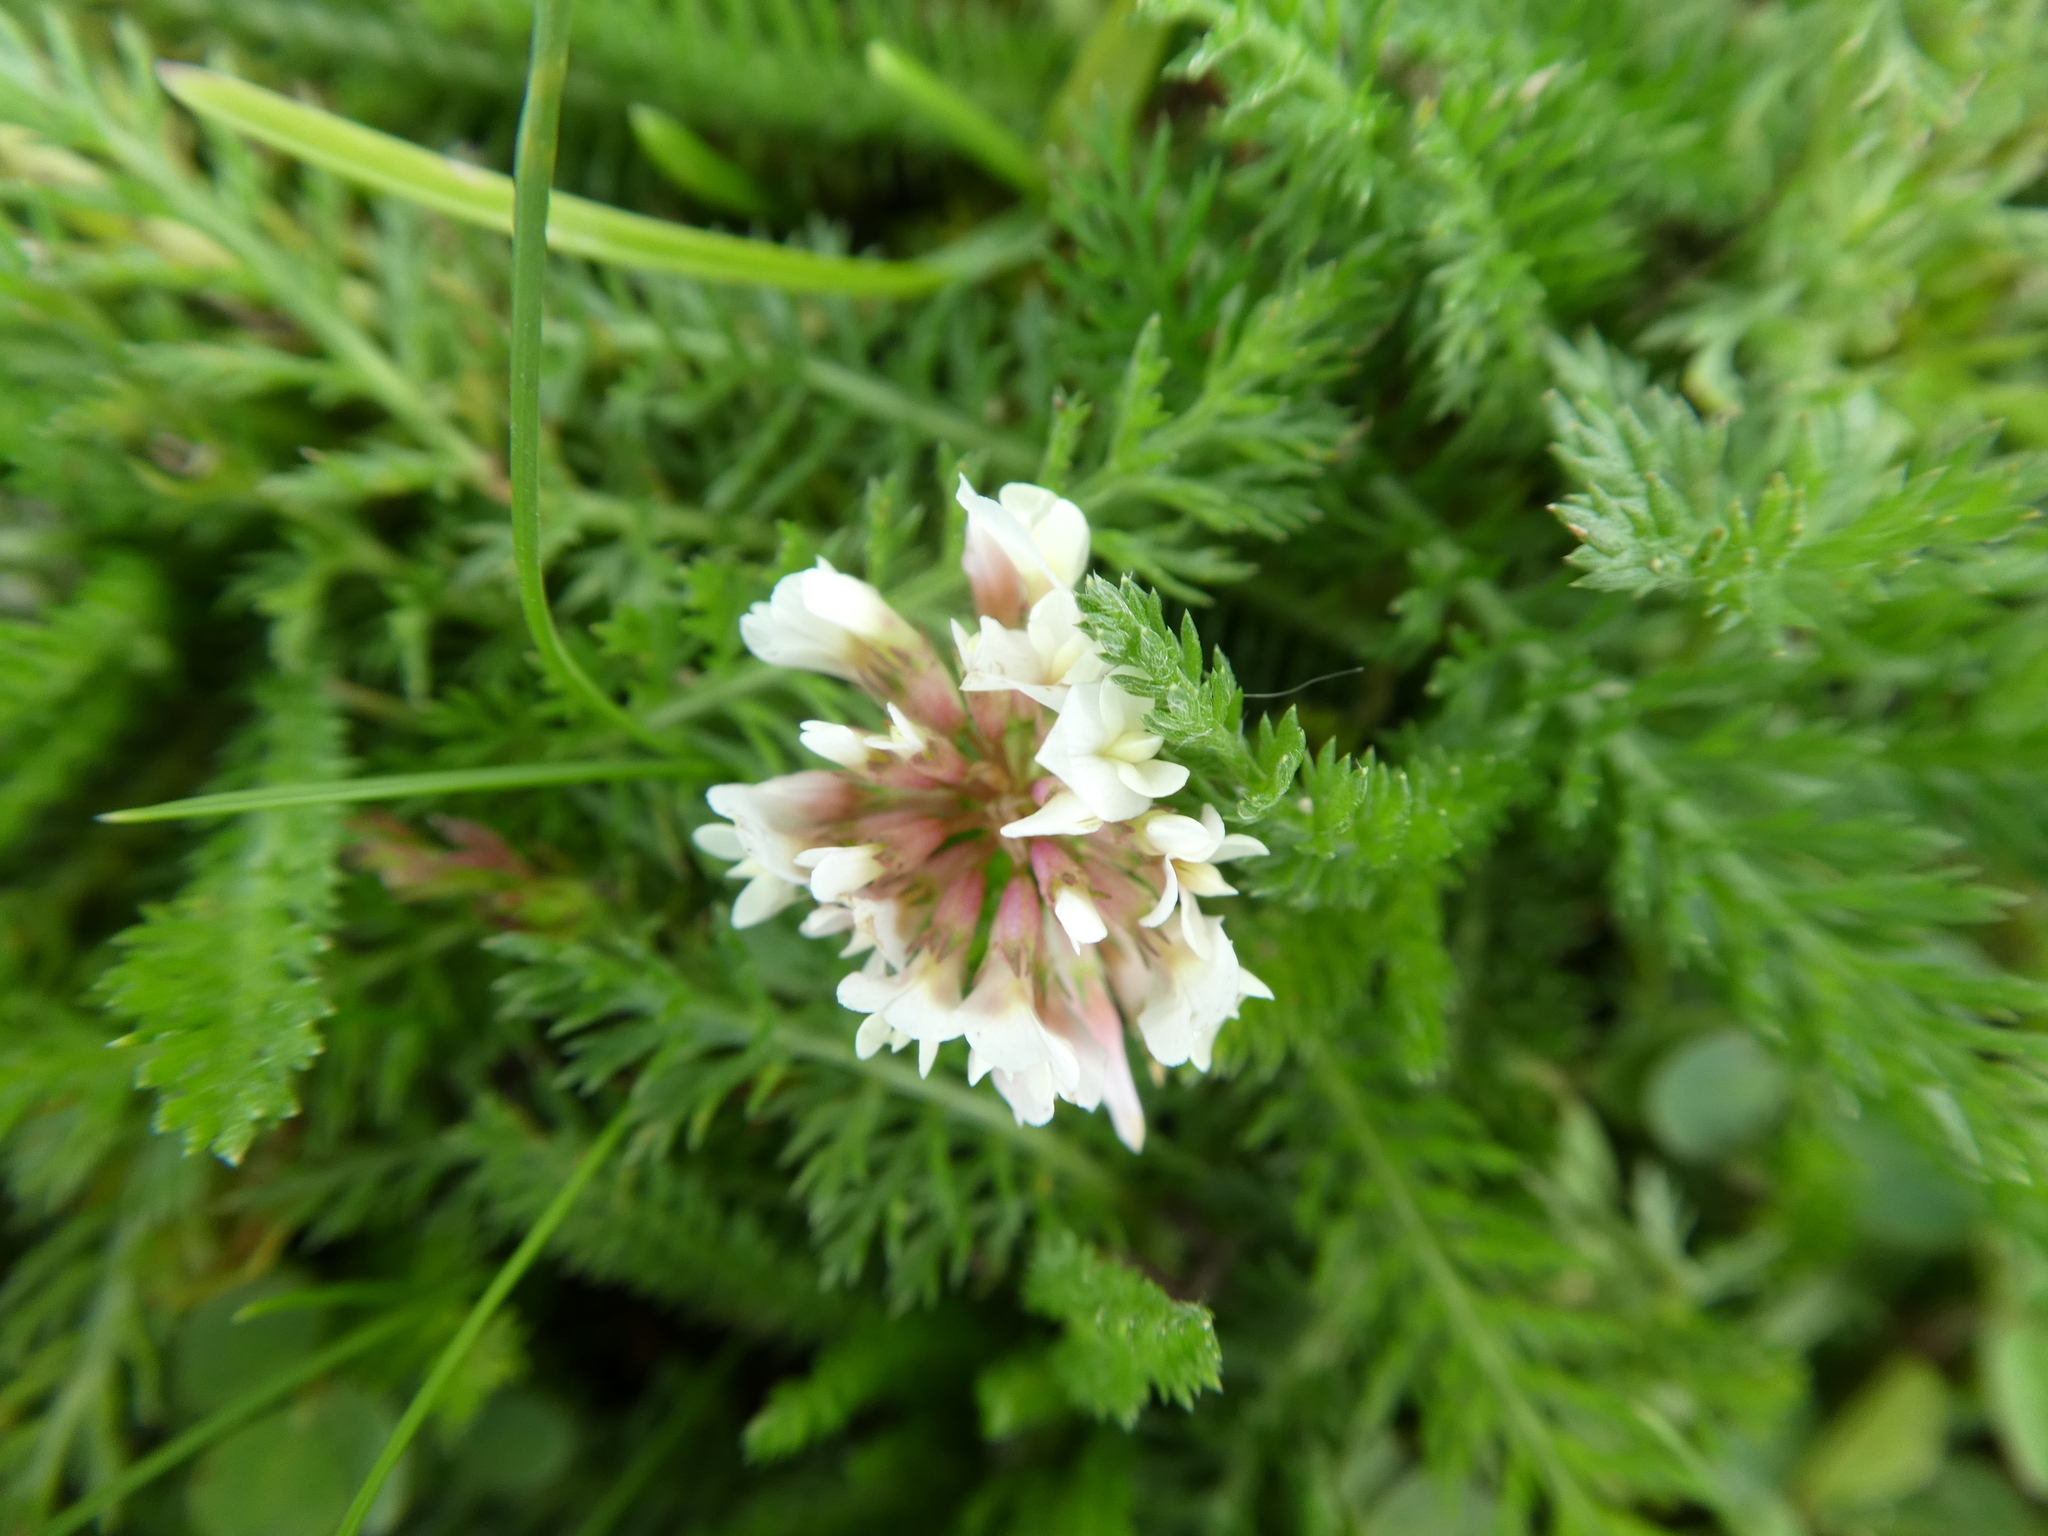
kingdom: Plantae
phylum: Tracheophyta
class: Magnoliopsida
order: Fabales
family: Fabaceae
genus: Trifolium
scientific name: Trifolium repens
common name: White clover
